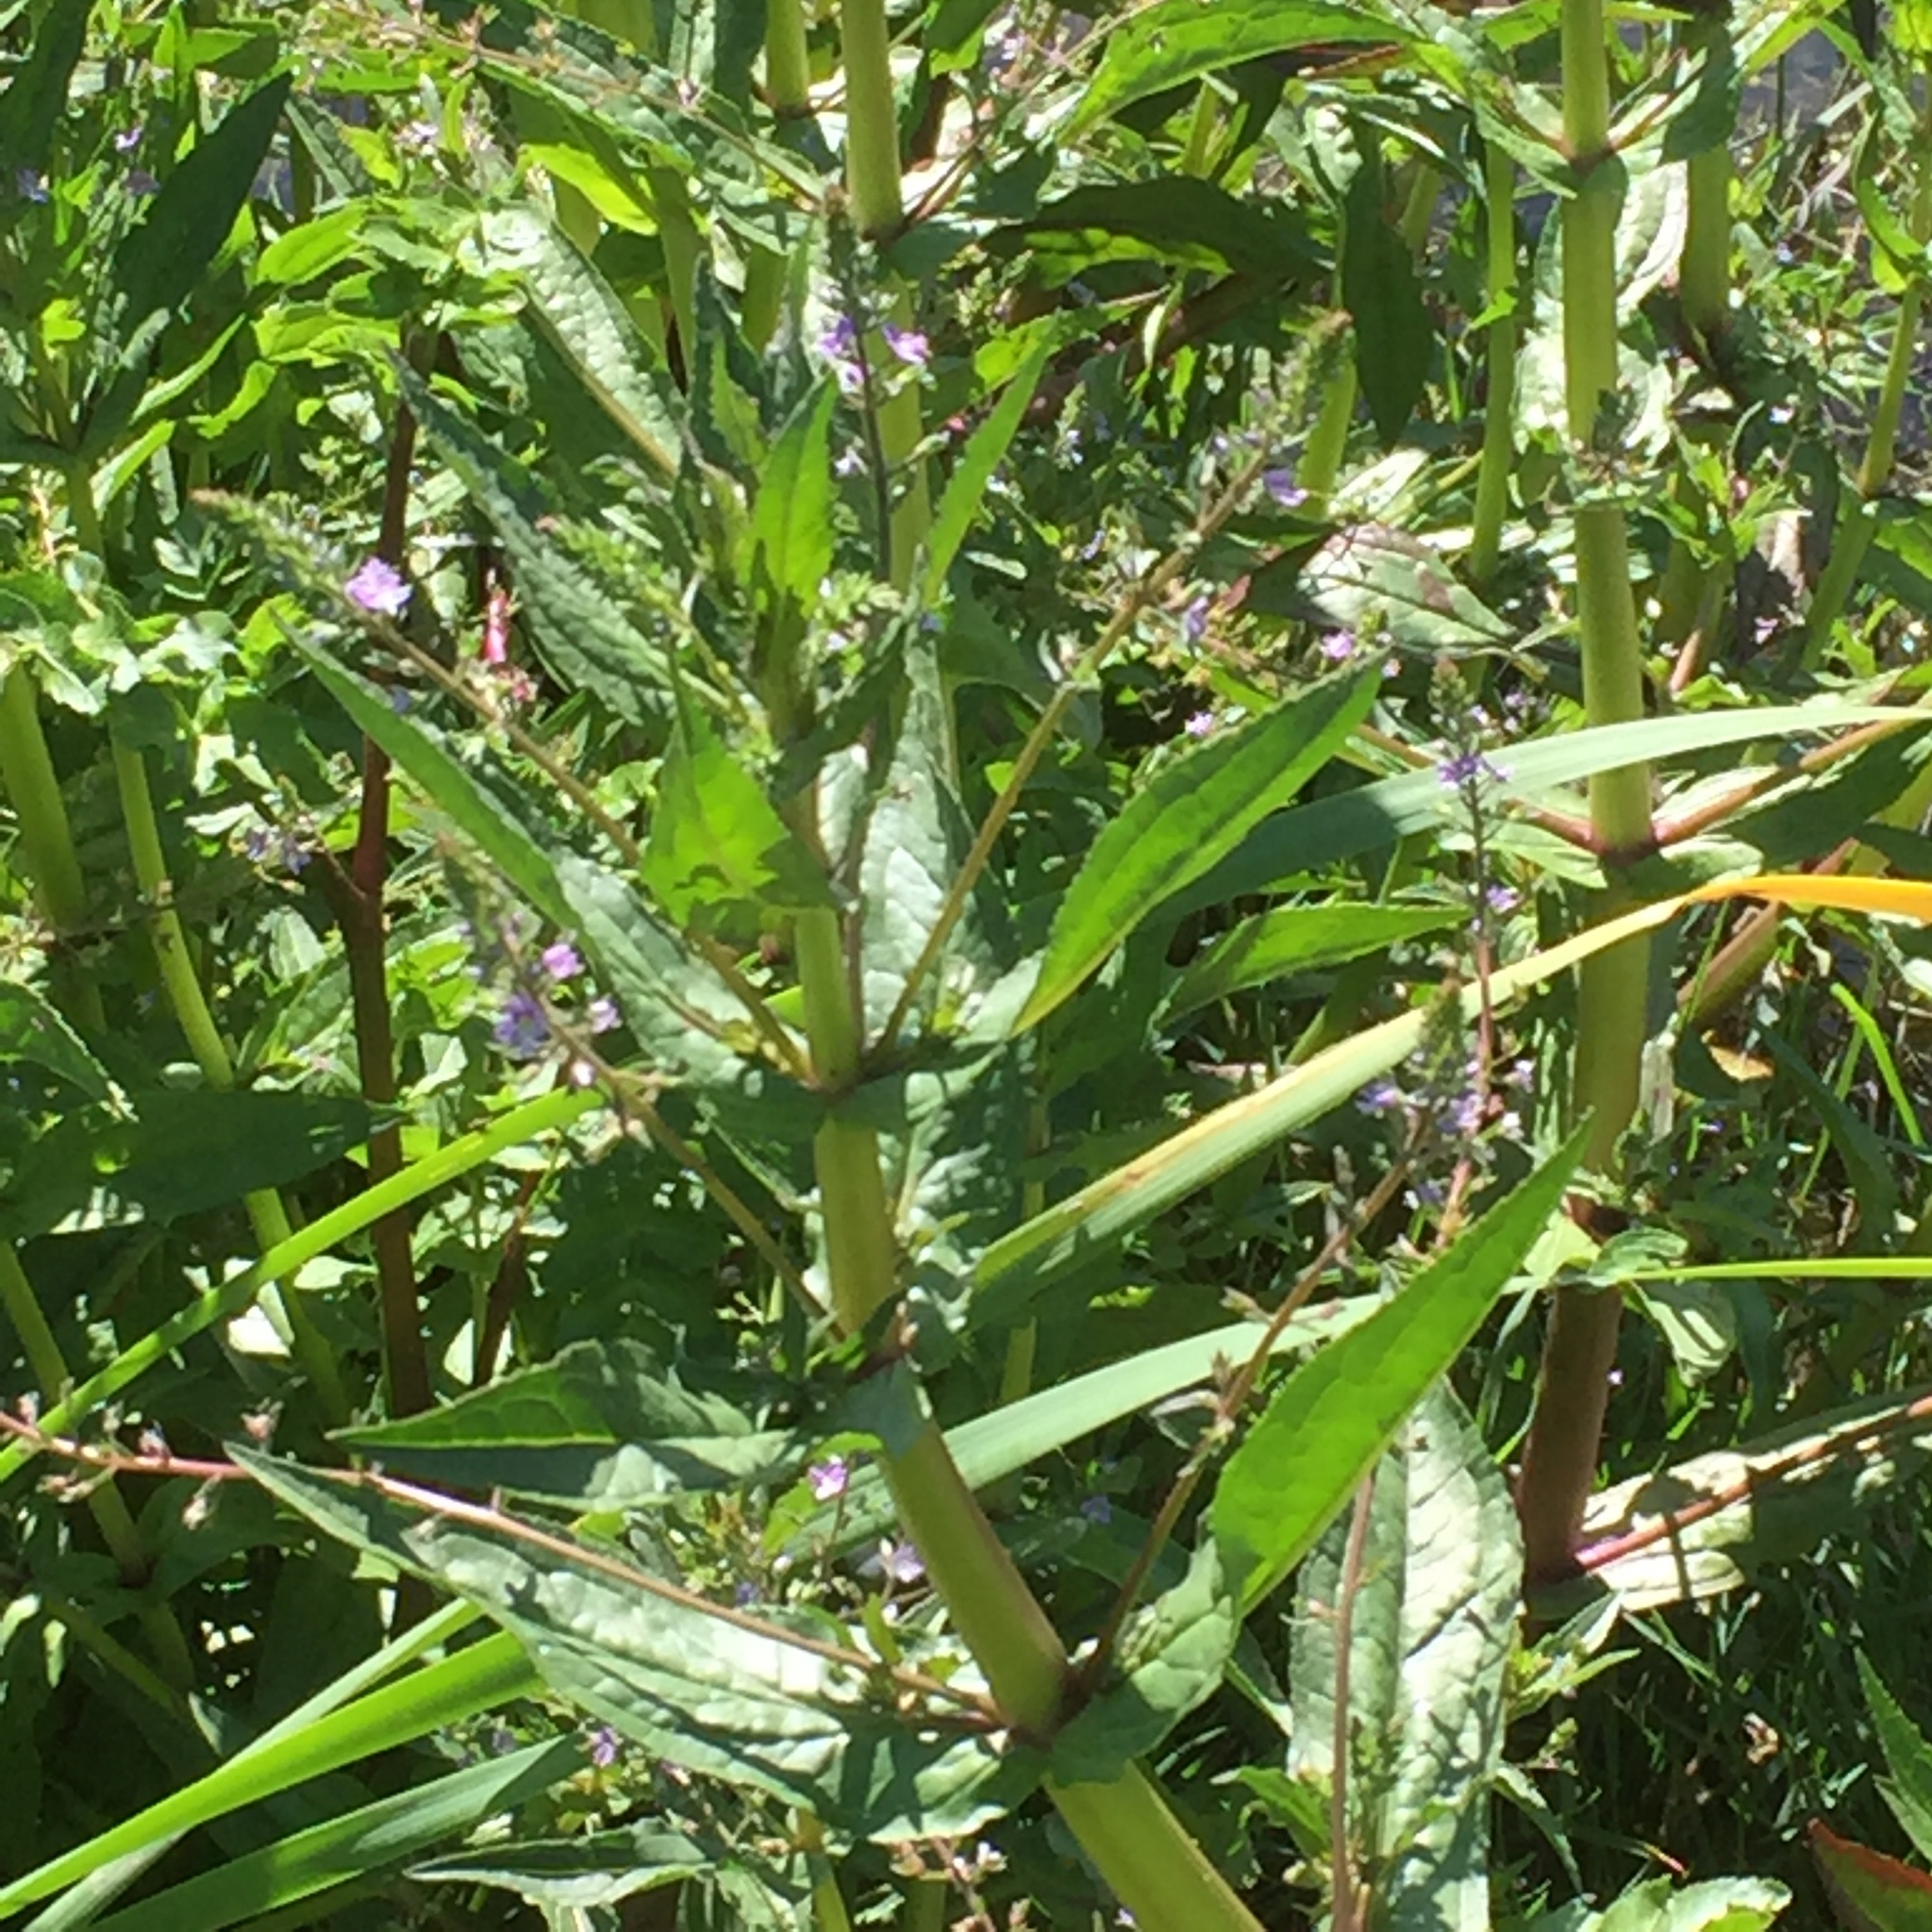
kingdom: Plantae
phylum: Tracheophyta
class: Magnoliopsida
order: Lamiales
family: Plantaginaceae
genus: Veronica
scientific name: Veronica anagallis-aquatica
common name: Water speedwell
